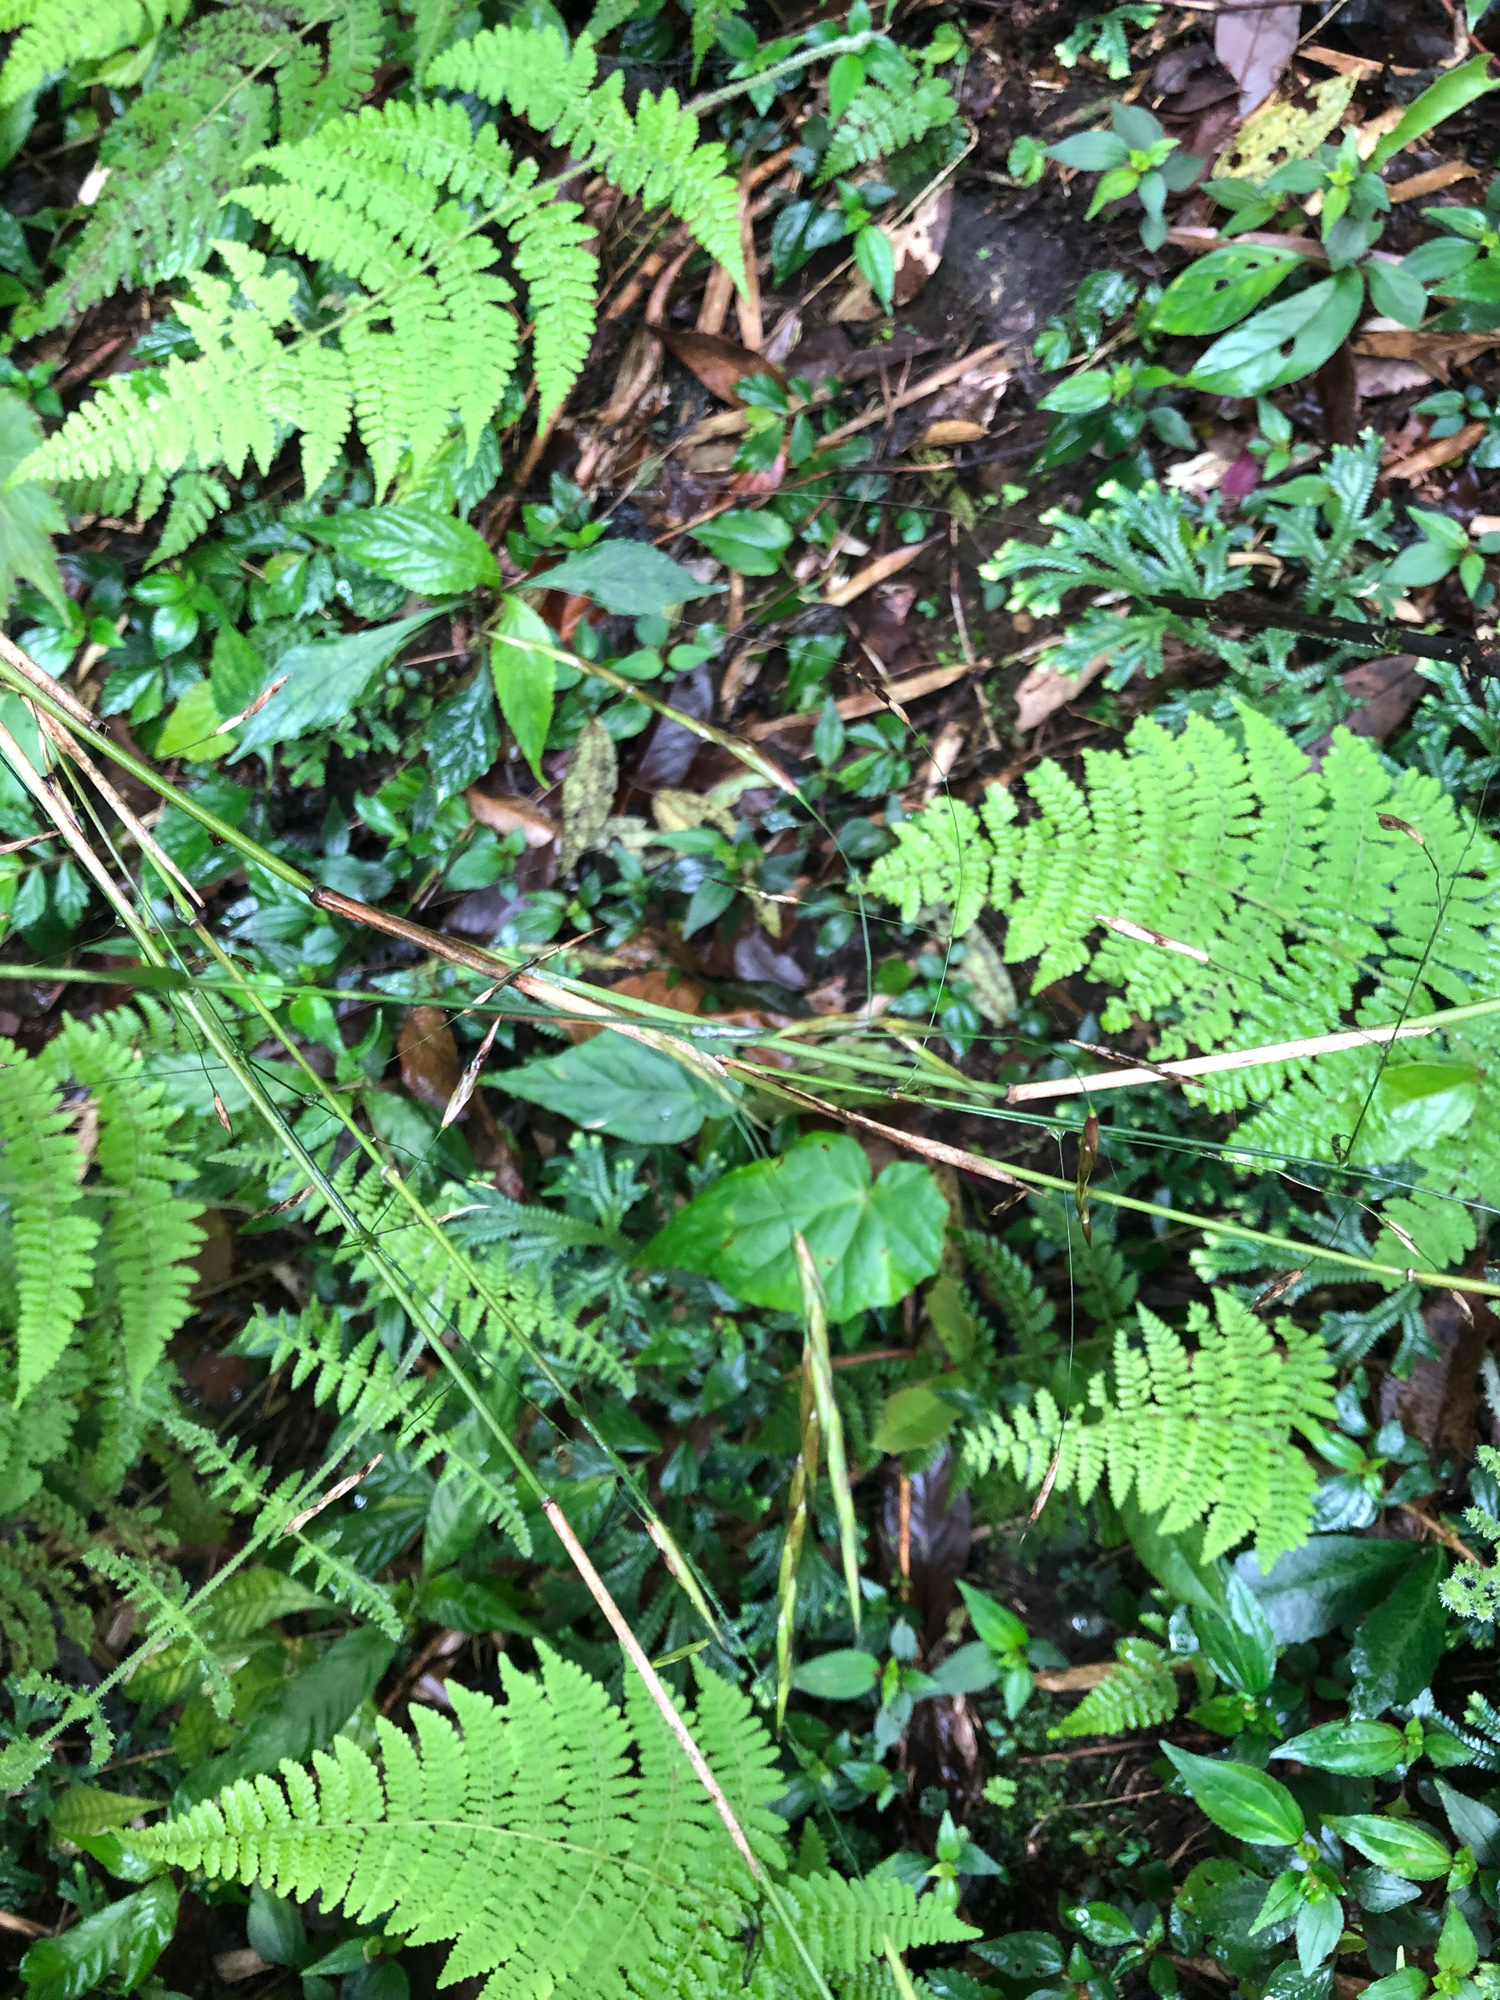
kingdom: Plantae
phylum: Tracheophyta
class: Liliopsida
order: Poales
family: Poaceae
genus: Yushania
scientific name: Yushania niitakayamensis
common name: Yushan cane
